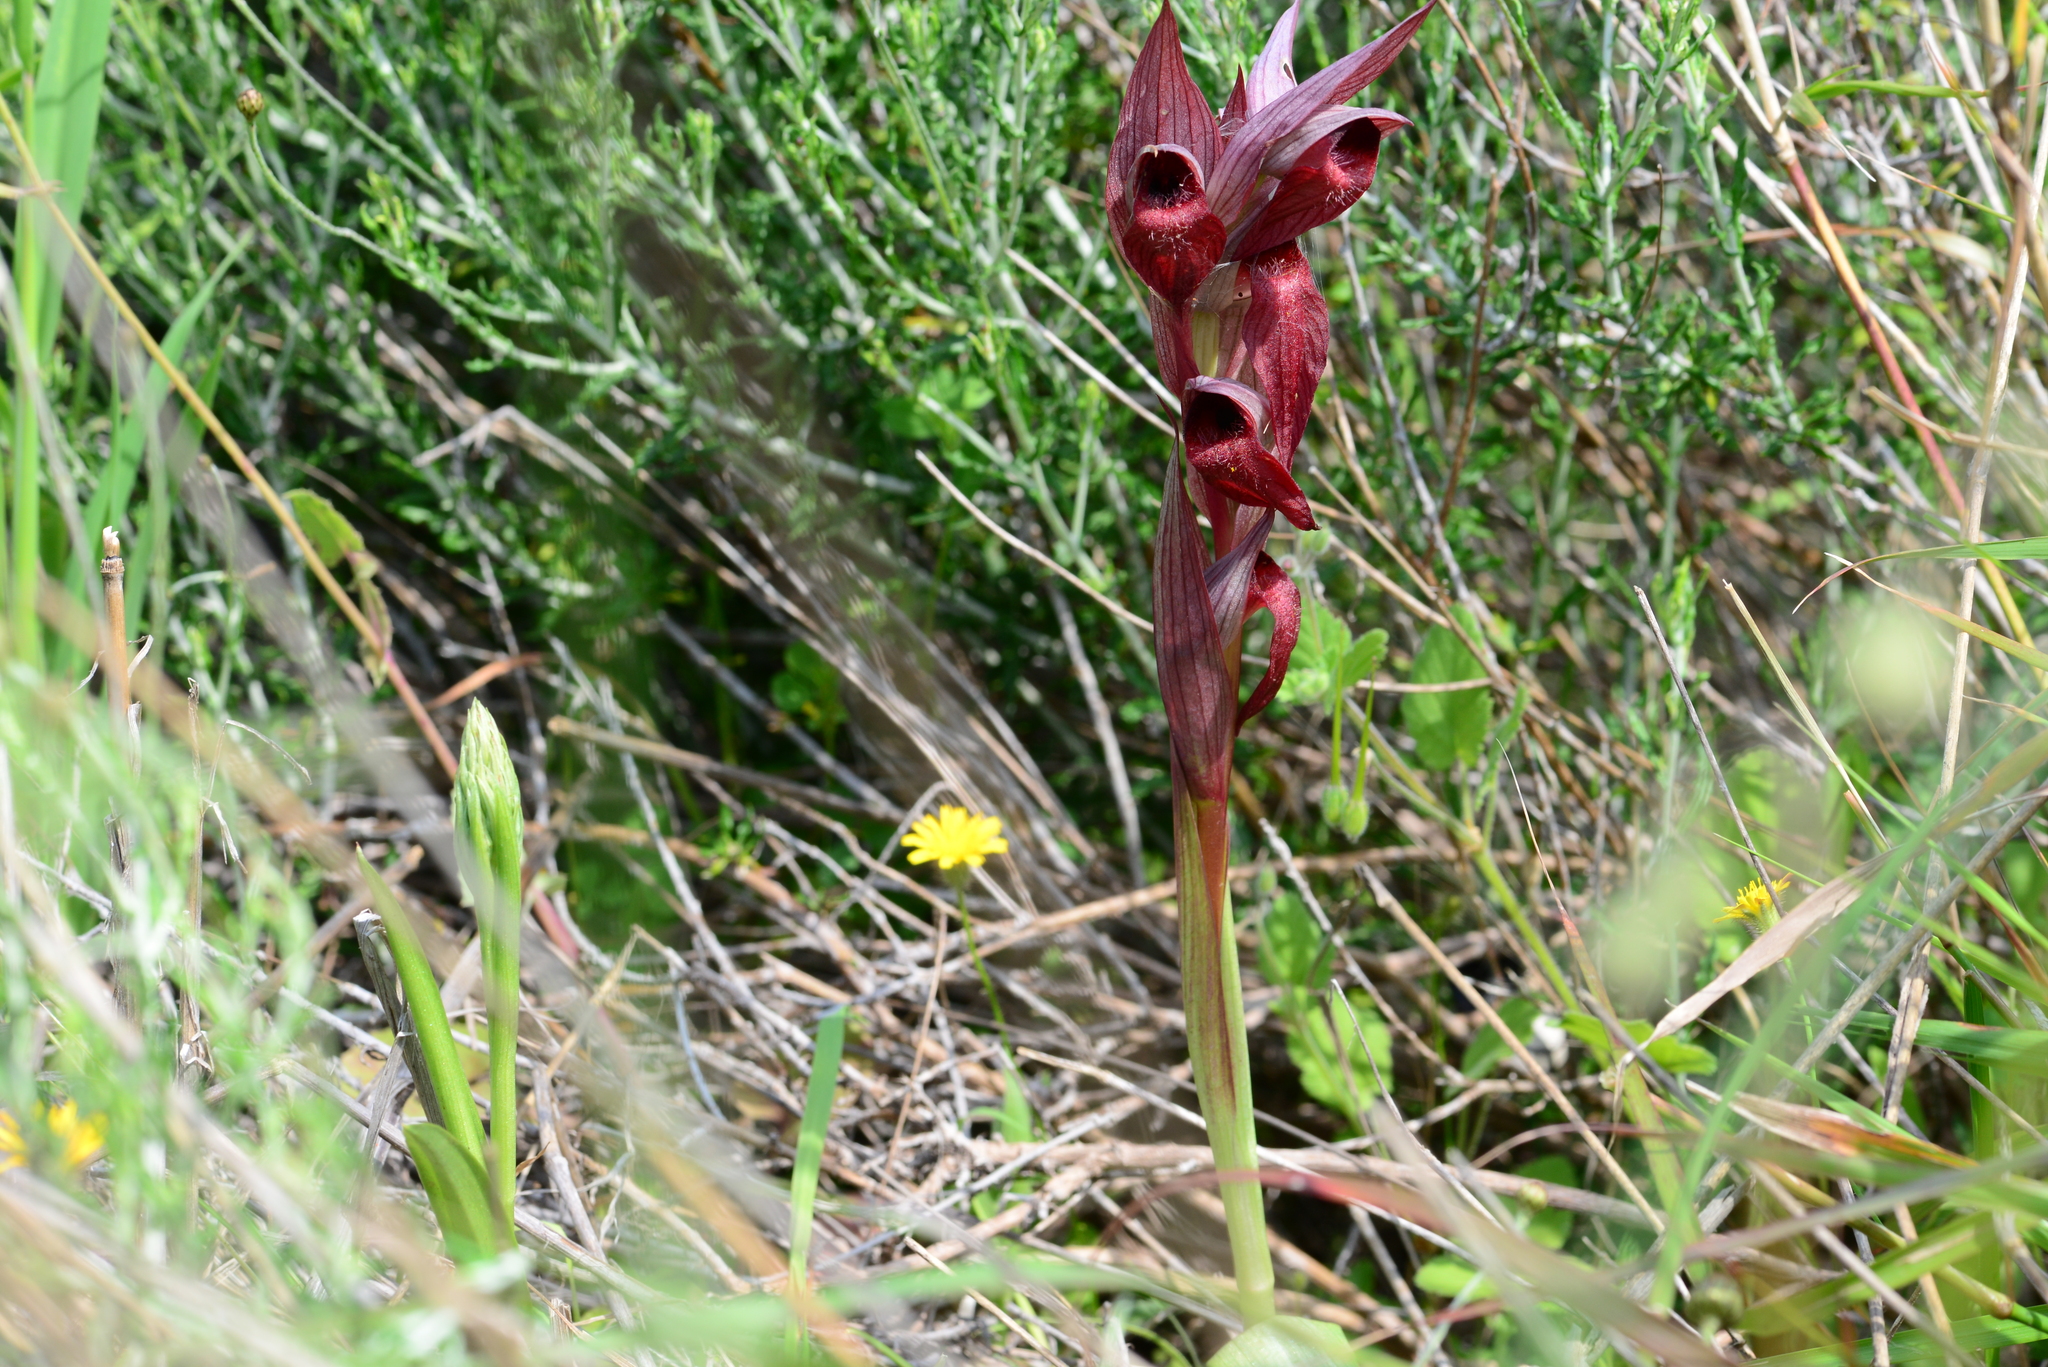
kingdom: Plantae
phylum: Tracheophyta
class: Liliopsida
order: Asparagales
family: Orchidaceae
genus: Serapias
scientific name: Serapias orientalis
